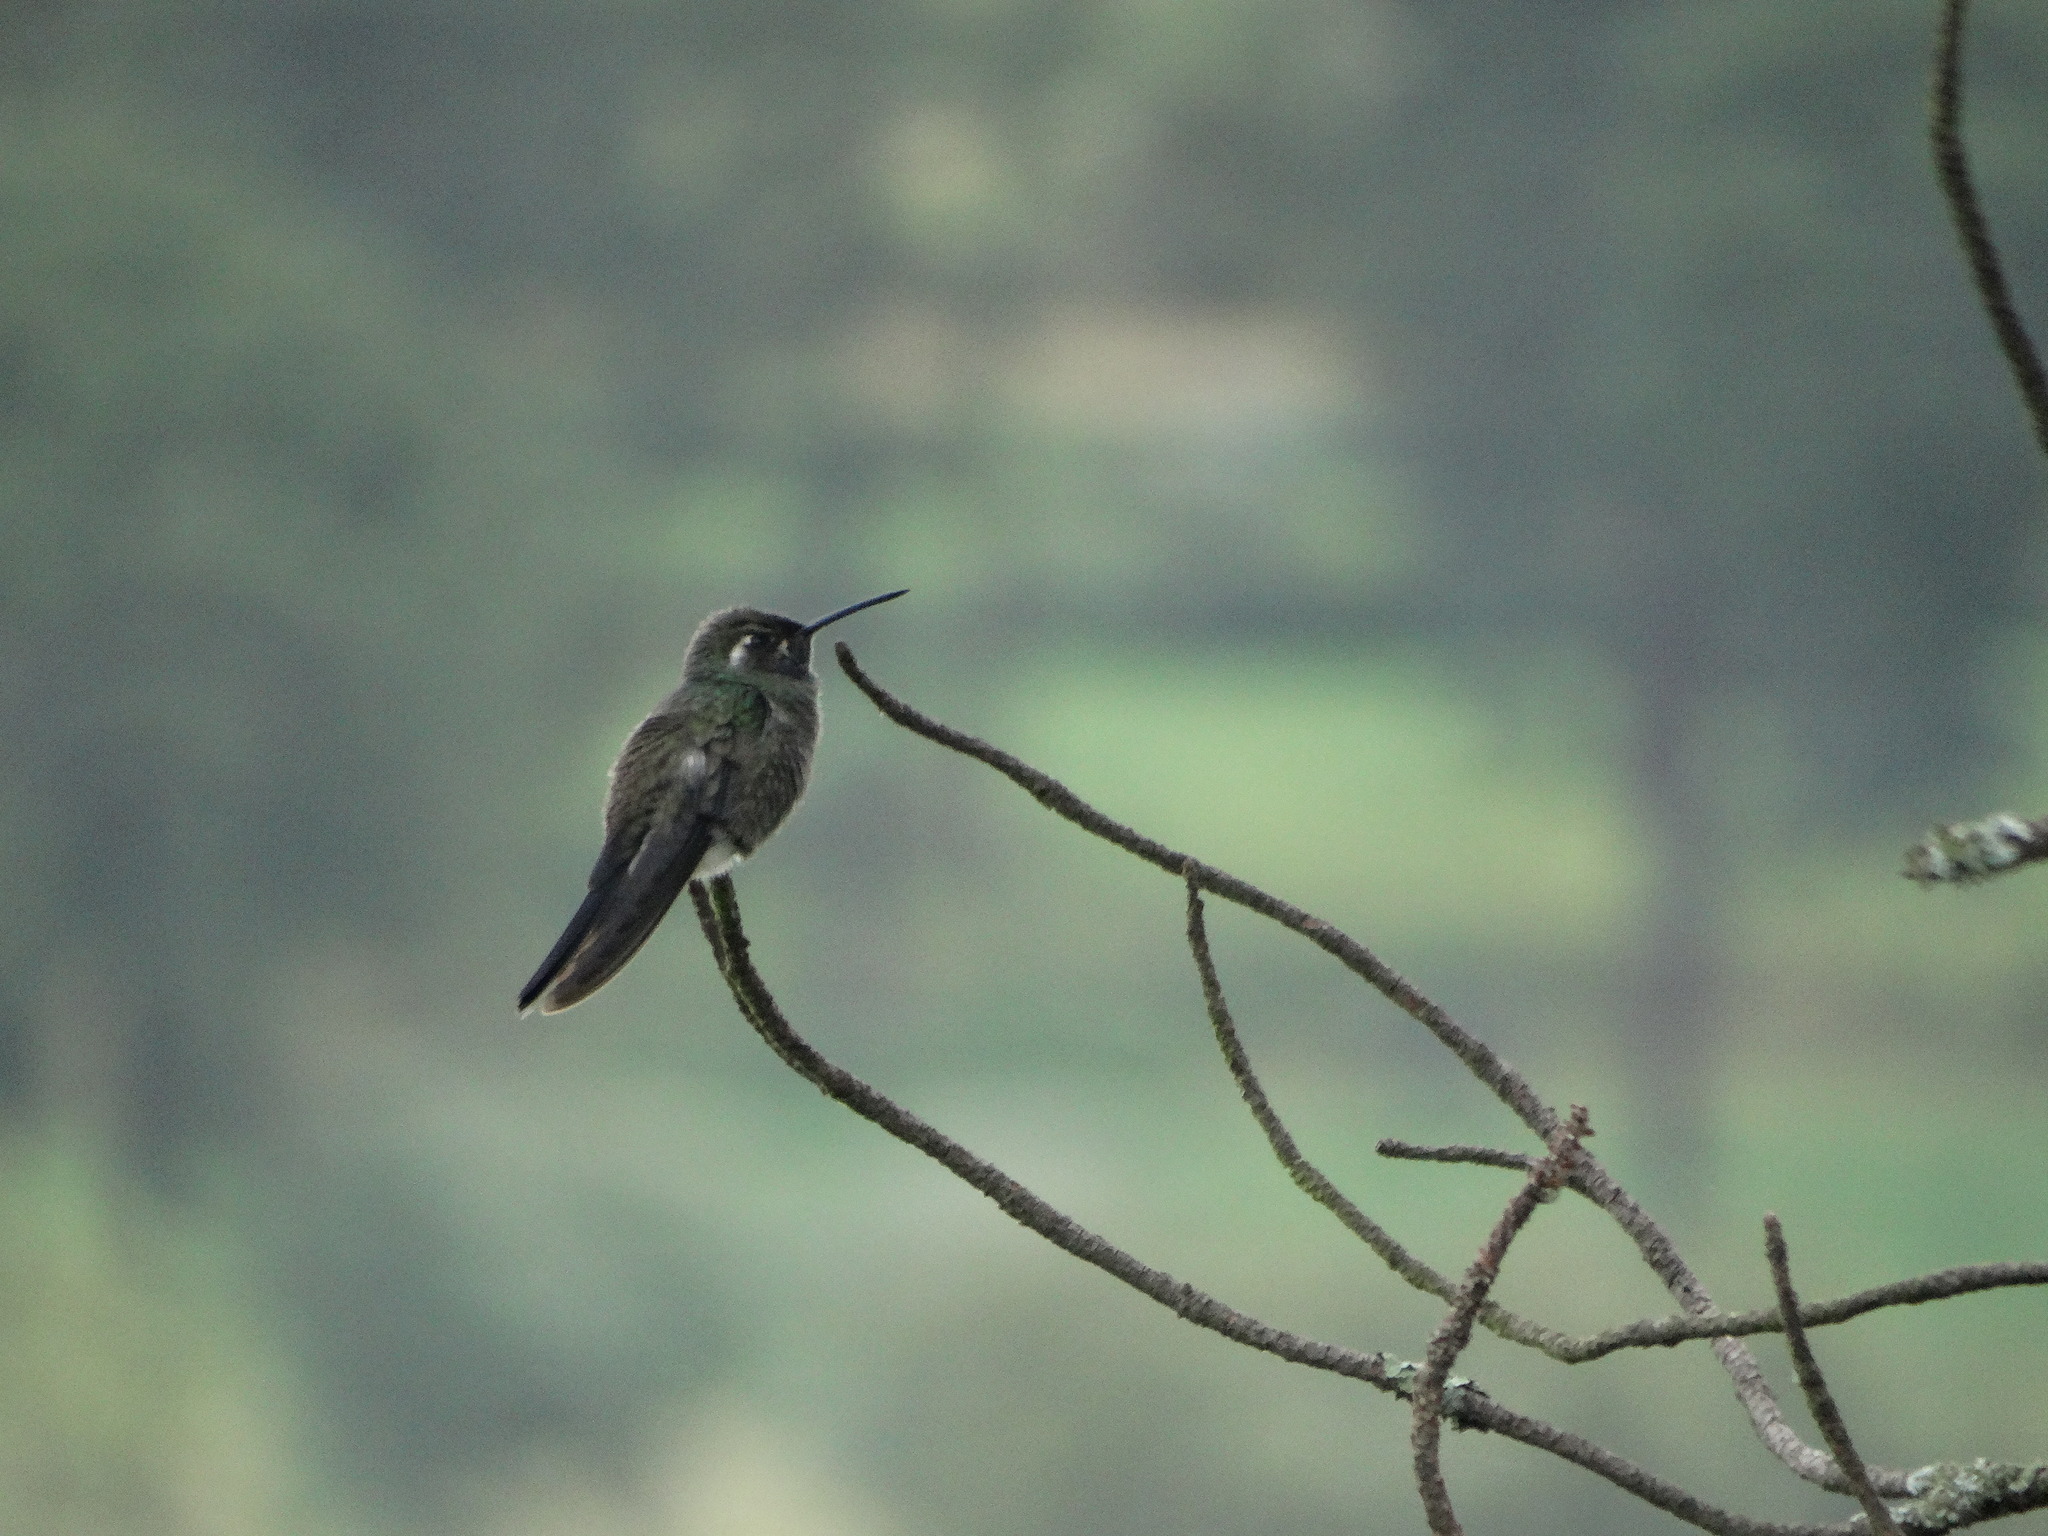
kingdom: Animalia
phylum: Chordata
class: Aves
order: Apodiformes
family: Trochilidae
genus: Basilinna
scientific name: Basilinna leucotis
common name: White-eared hummingbird
